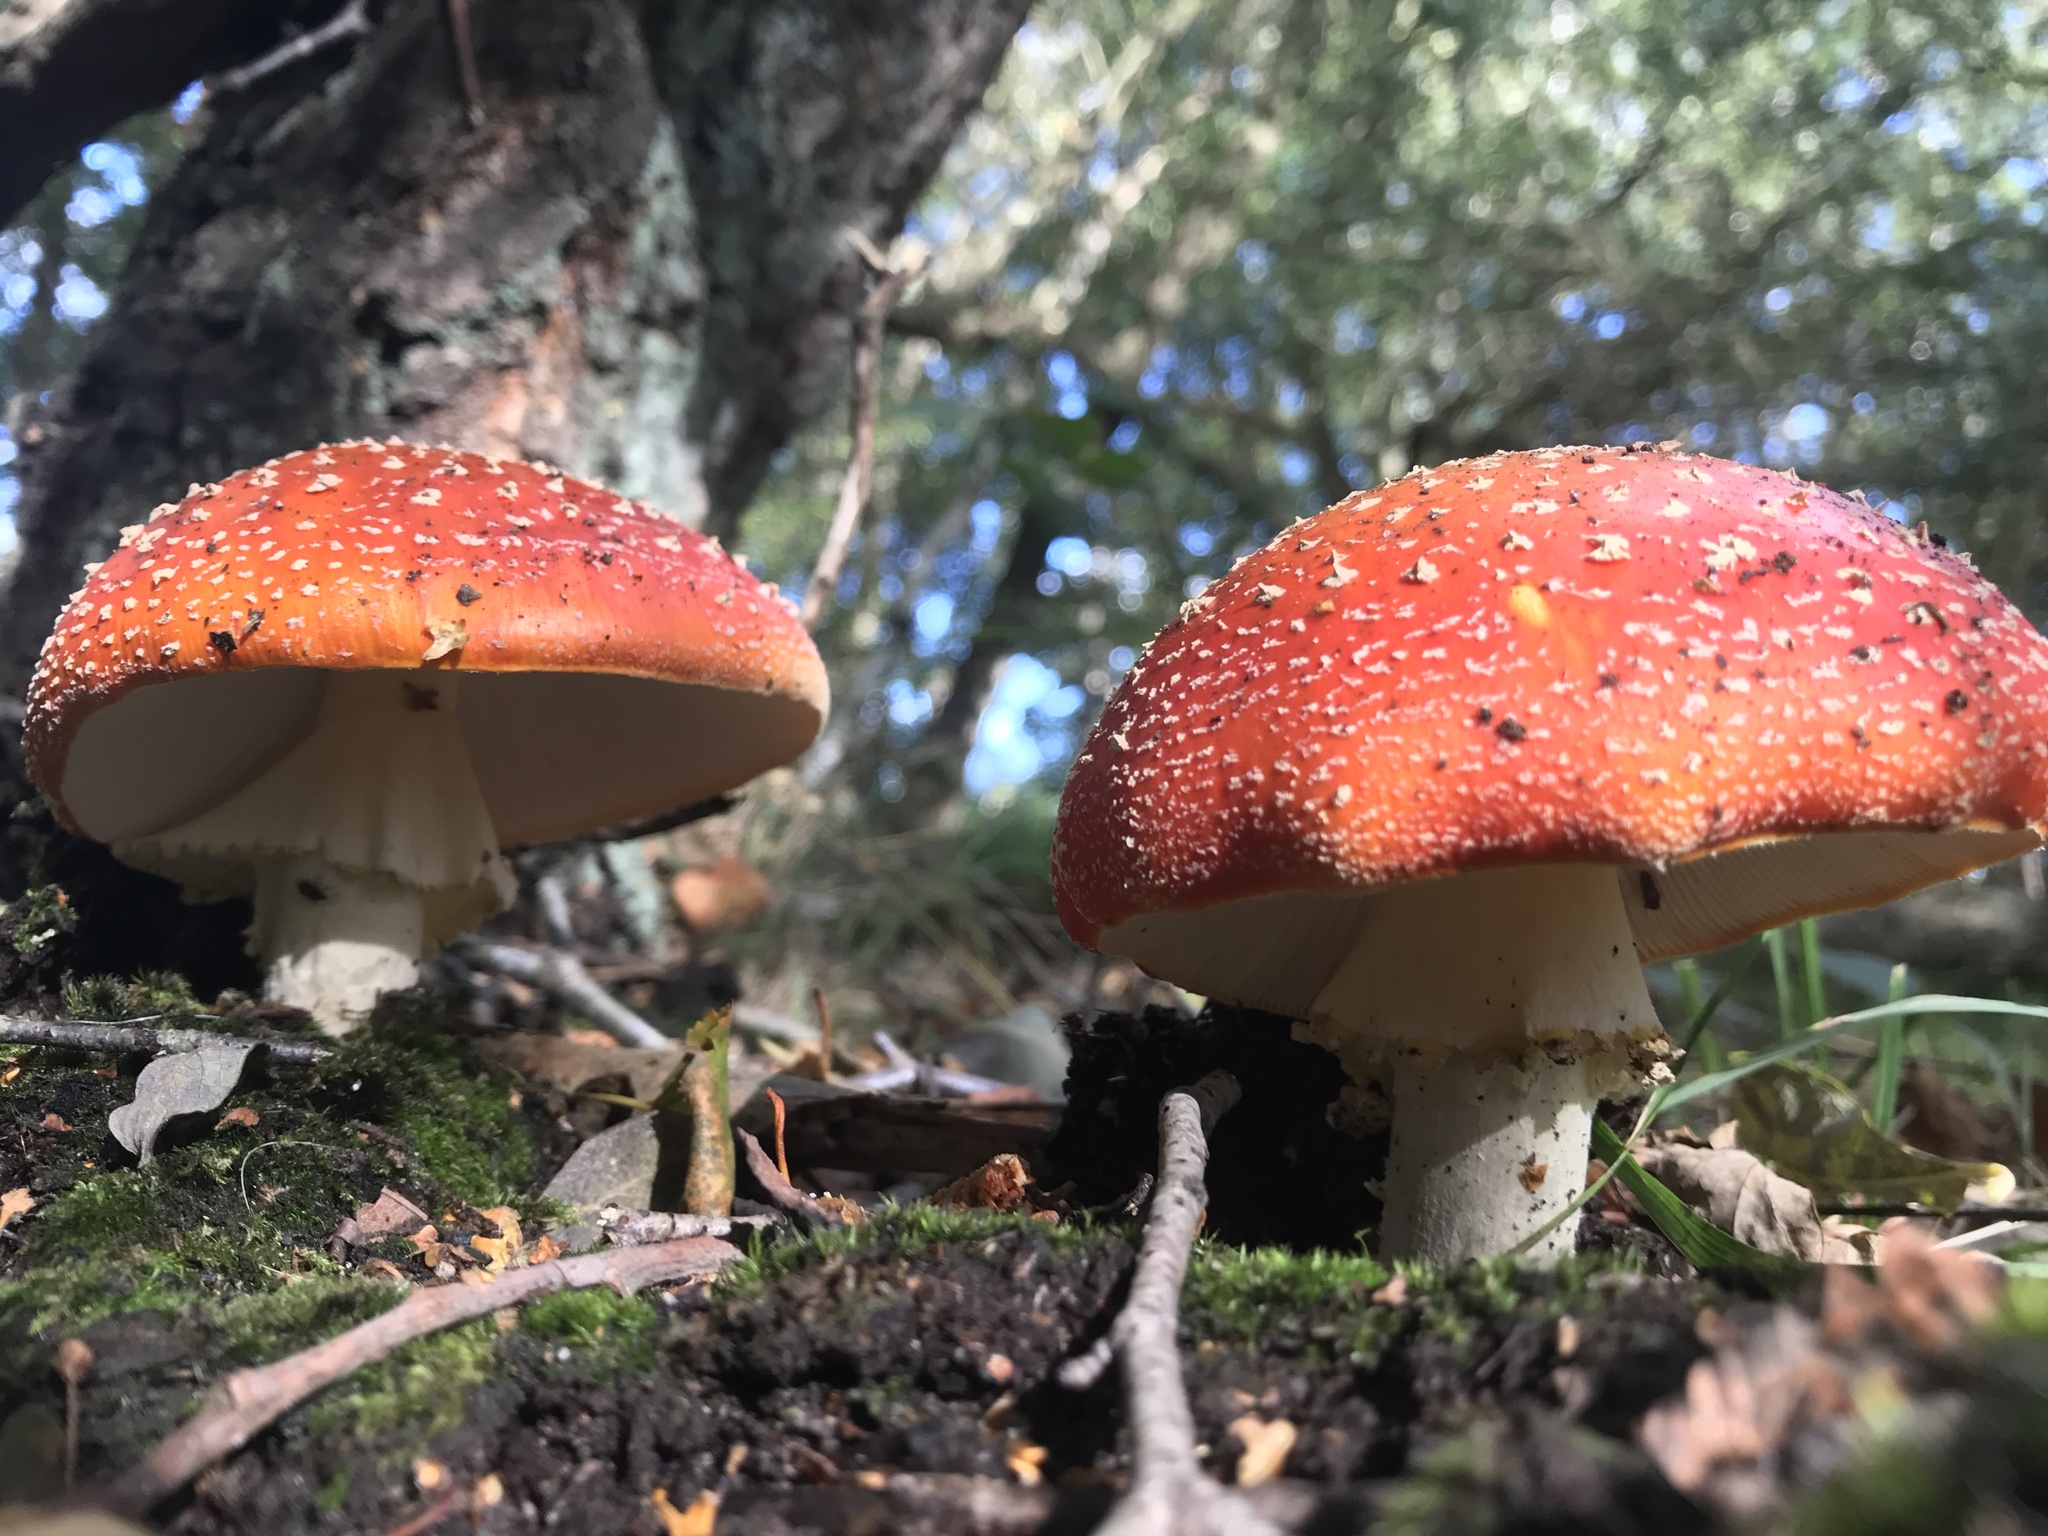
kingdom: Fungi
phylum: Basidiomycota
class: Agaricomycetes
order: Agaricales
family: Amanitaceae
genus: Amanita
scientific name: Amanita muscaria
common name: Fly agaric
